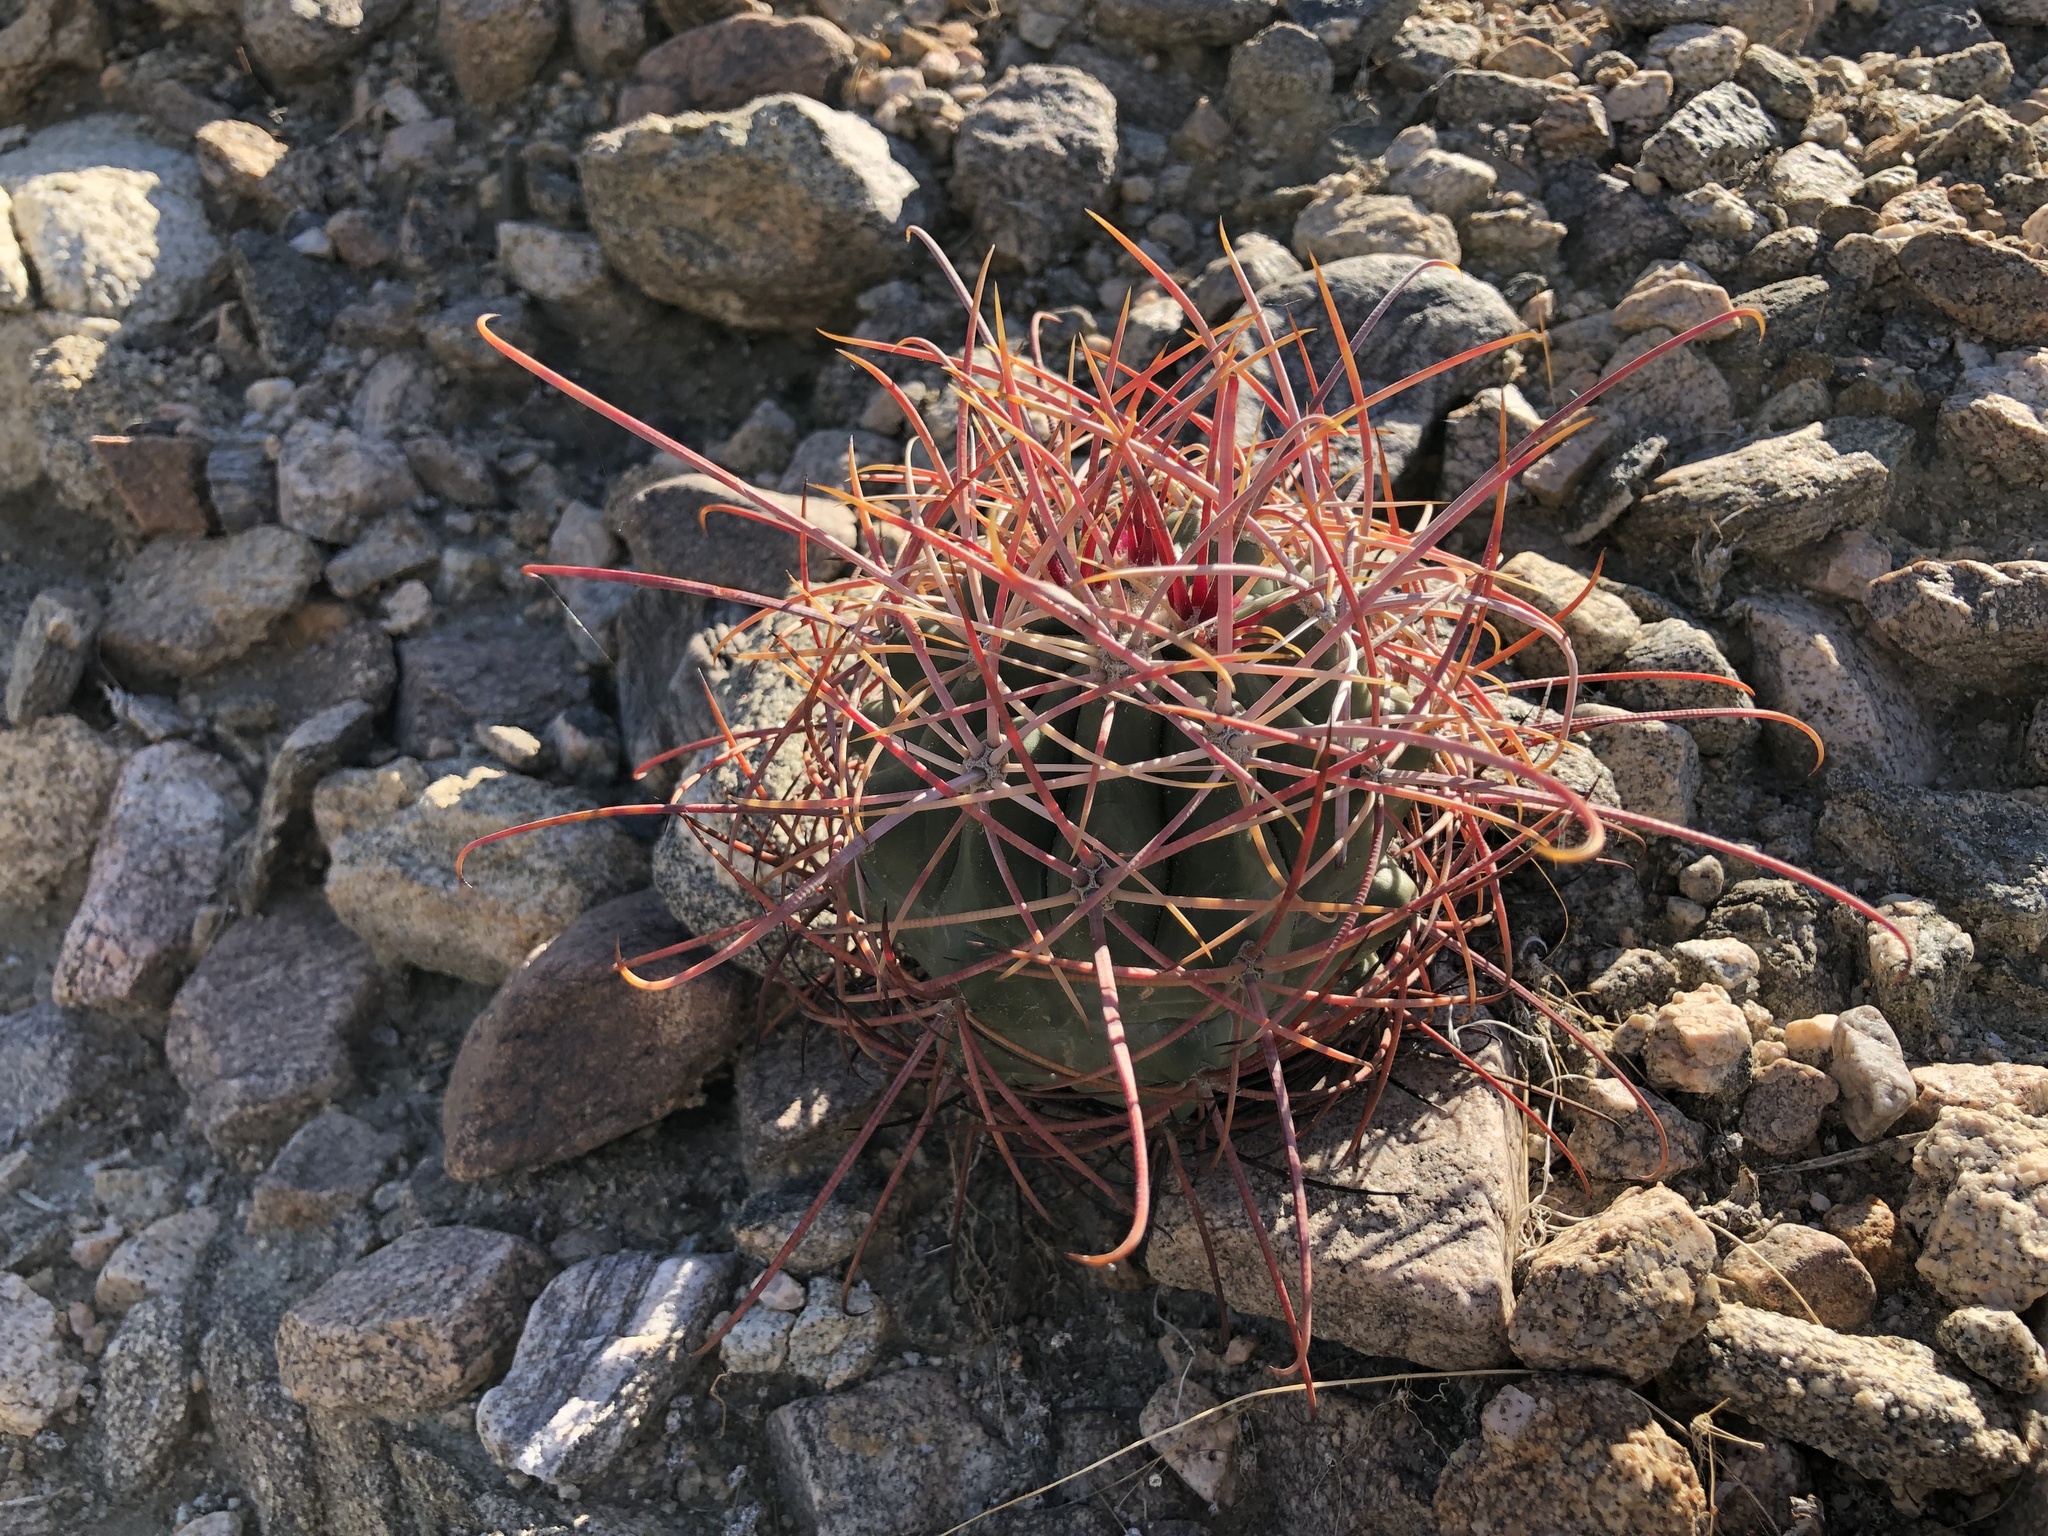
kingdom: Plantae
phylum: Tracheophyta
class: Magnoliopsida
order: Caryophyllales
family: Cactaceae
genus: Ferocactus
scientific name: Ferocactus cylindraceus
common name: California barrel cactus
